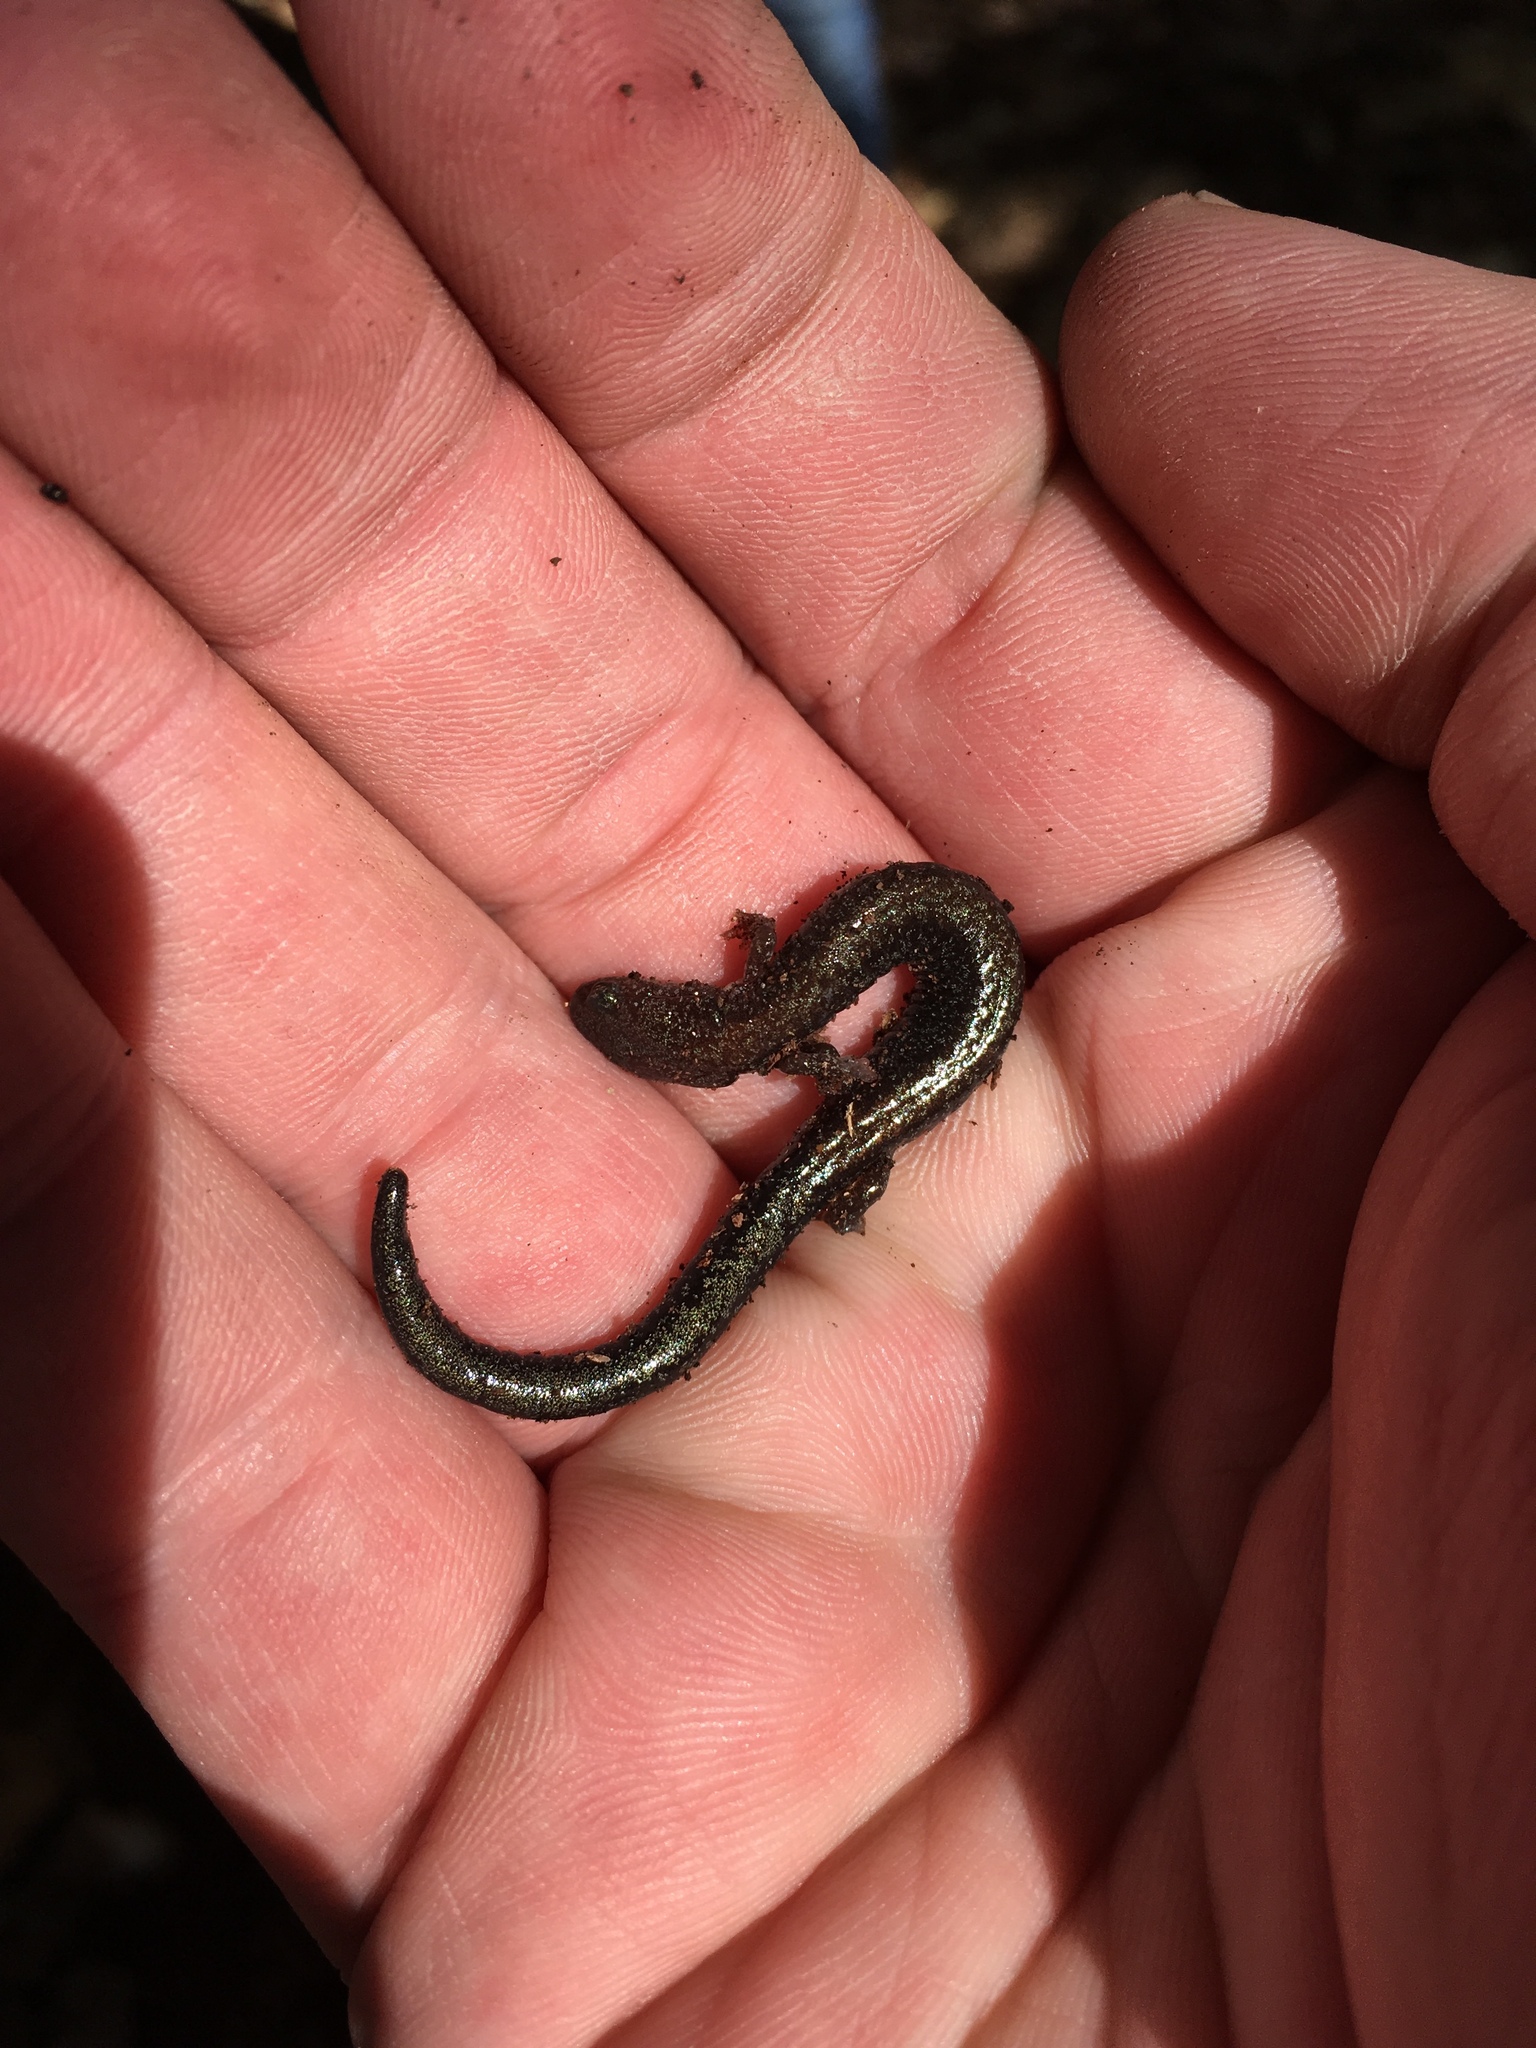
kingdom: Animalia
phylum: Chordata
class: Amphibia
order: Caudata
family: Plethodontidae
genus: Plethodon
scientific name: Plethodon richmondi
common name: Ravine salamander
